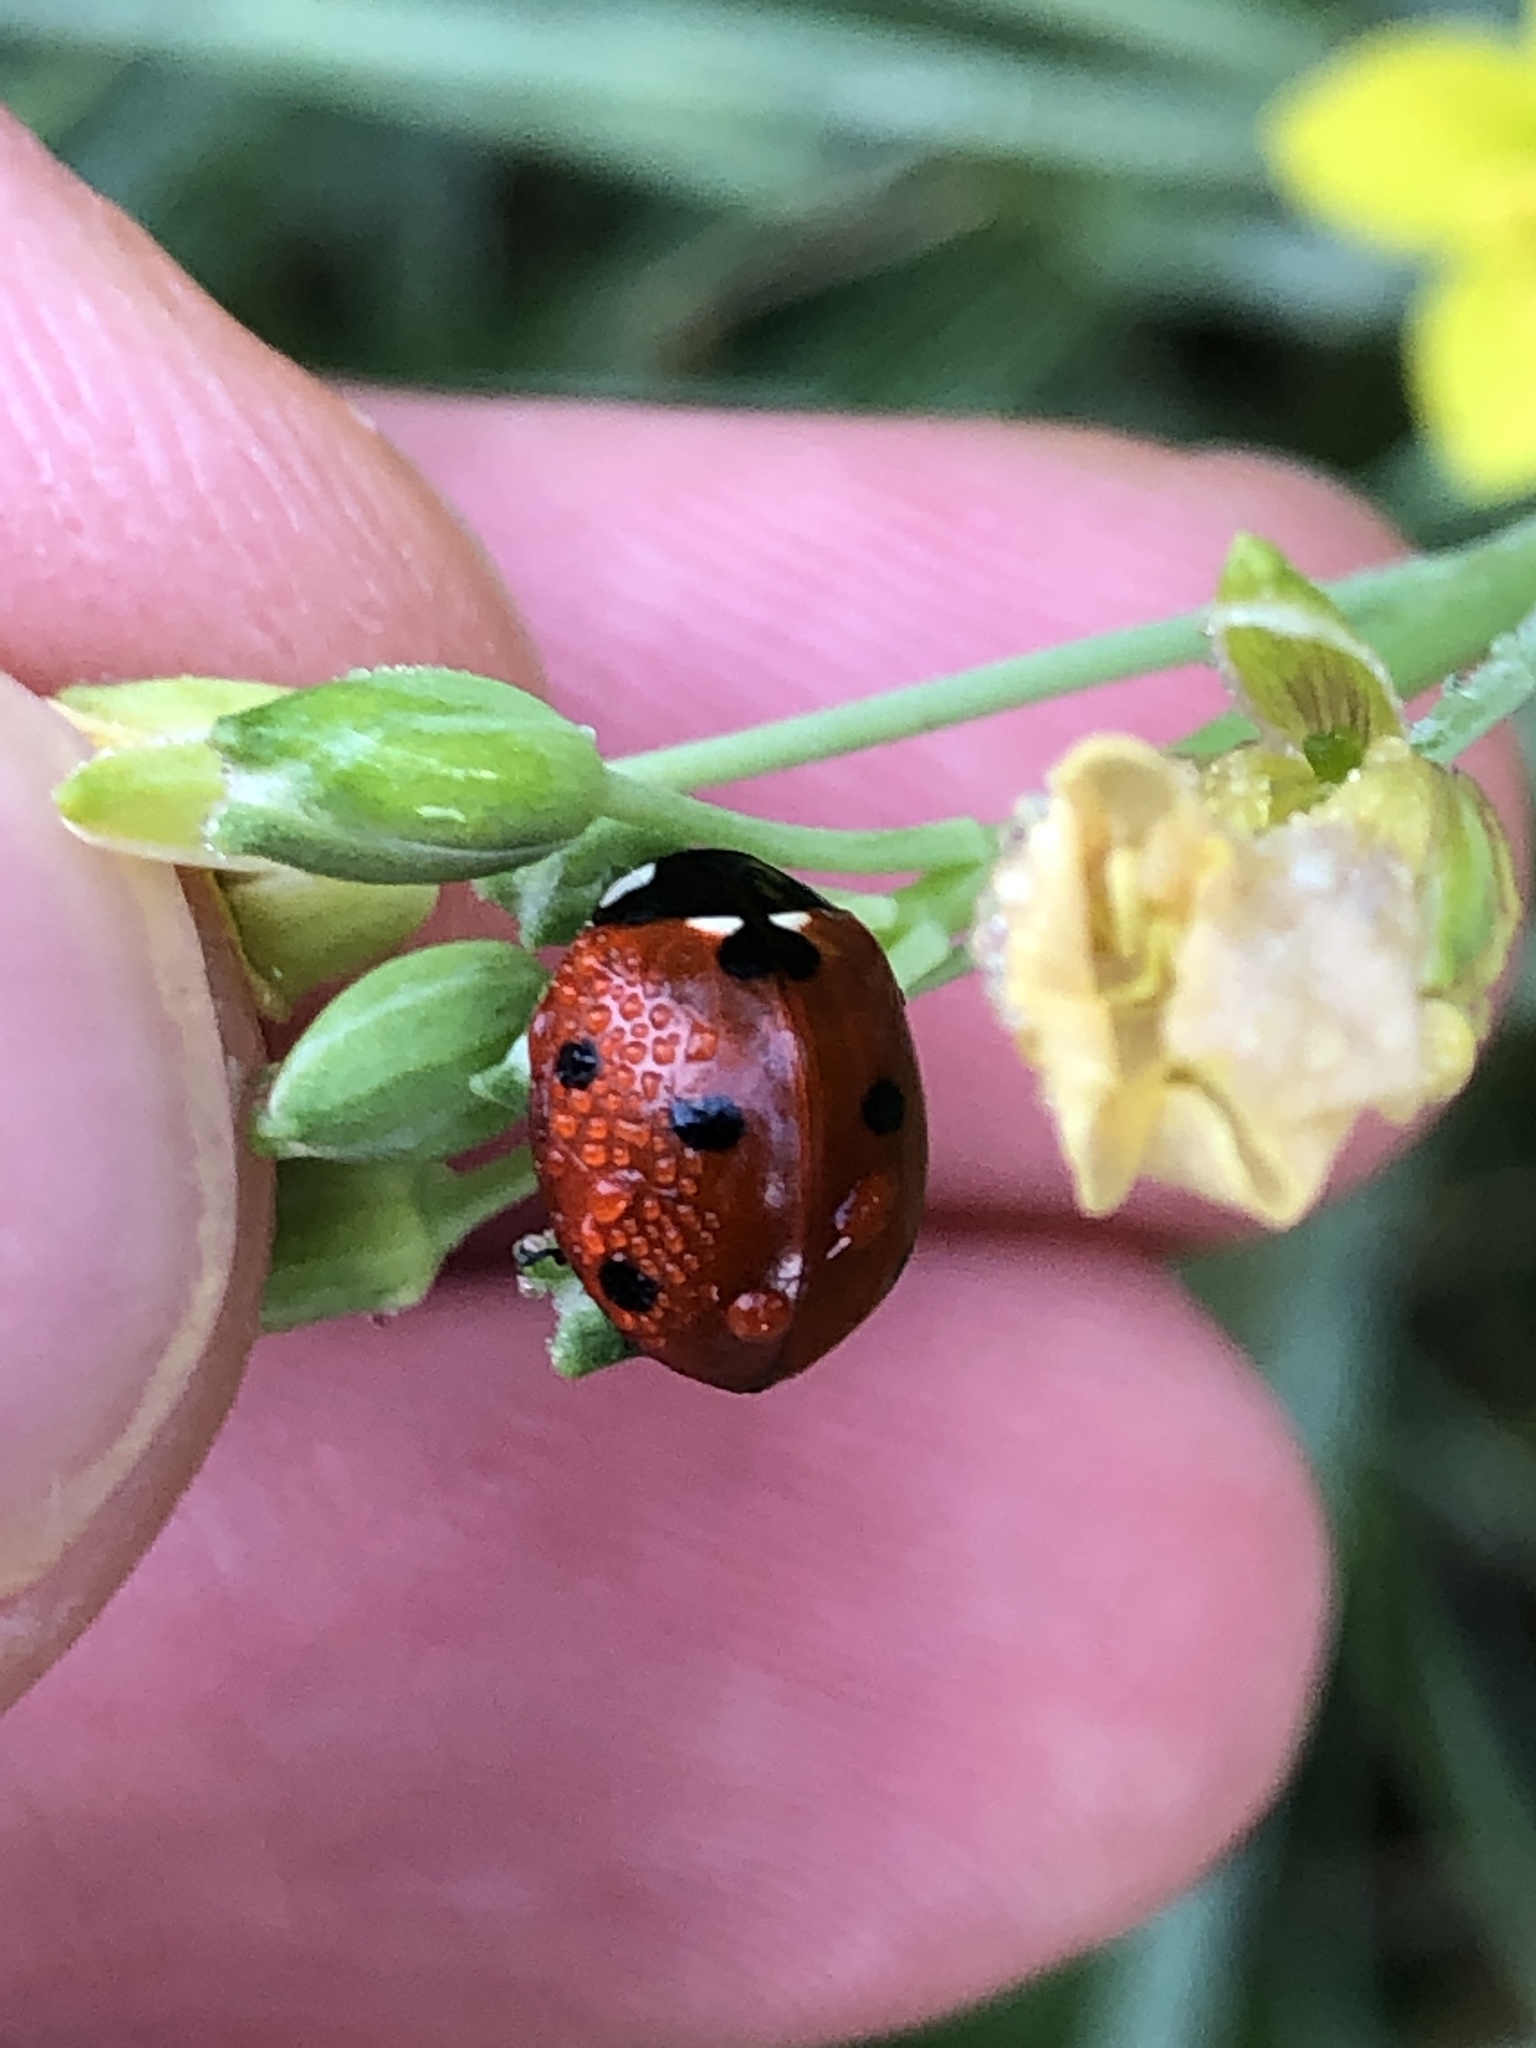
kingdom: Animalia
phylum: Arthropoda
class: Insecta
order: Coleoptera
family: Coccinellidae
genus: Coccinella
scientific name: Coccinella septempunctata
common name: Sevenspotted lady beetle
